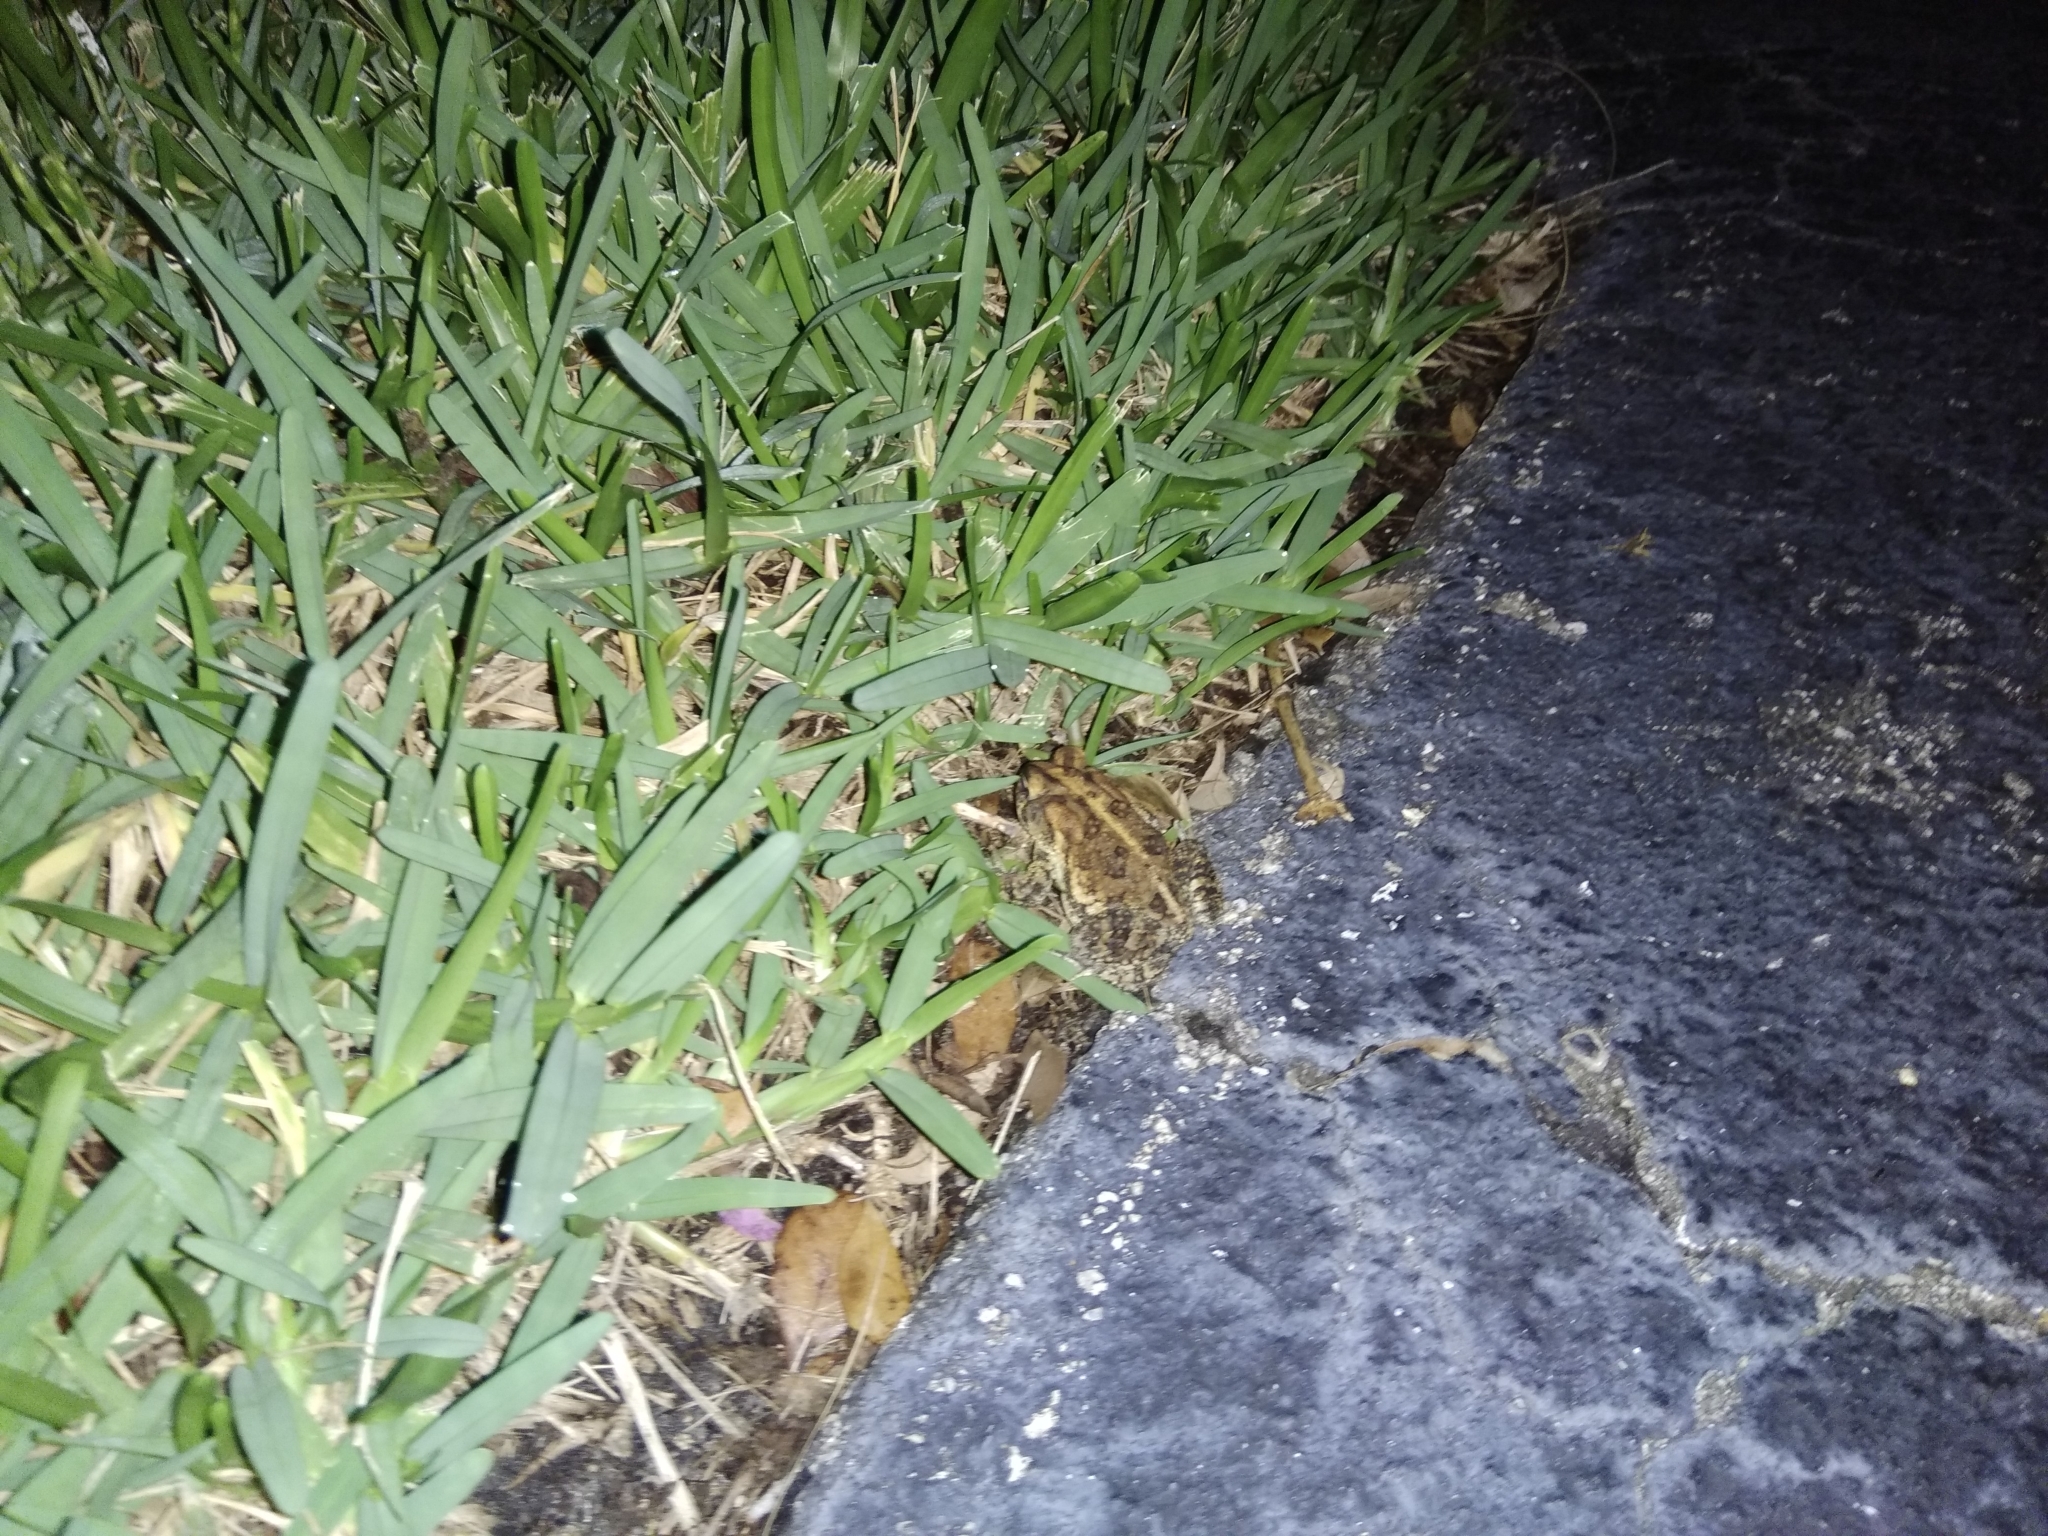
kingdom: Animalia
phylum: Chordata
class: Amphibia
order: Anura
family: Bufonidae
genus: Anaxyrus
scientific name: Anaxyrus terrestris
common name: Southern toad
